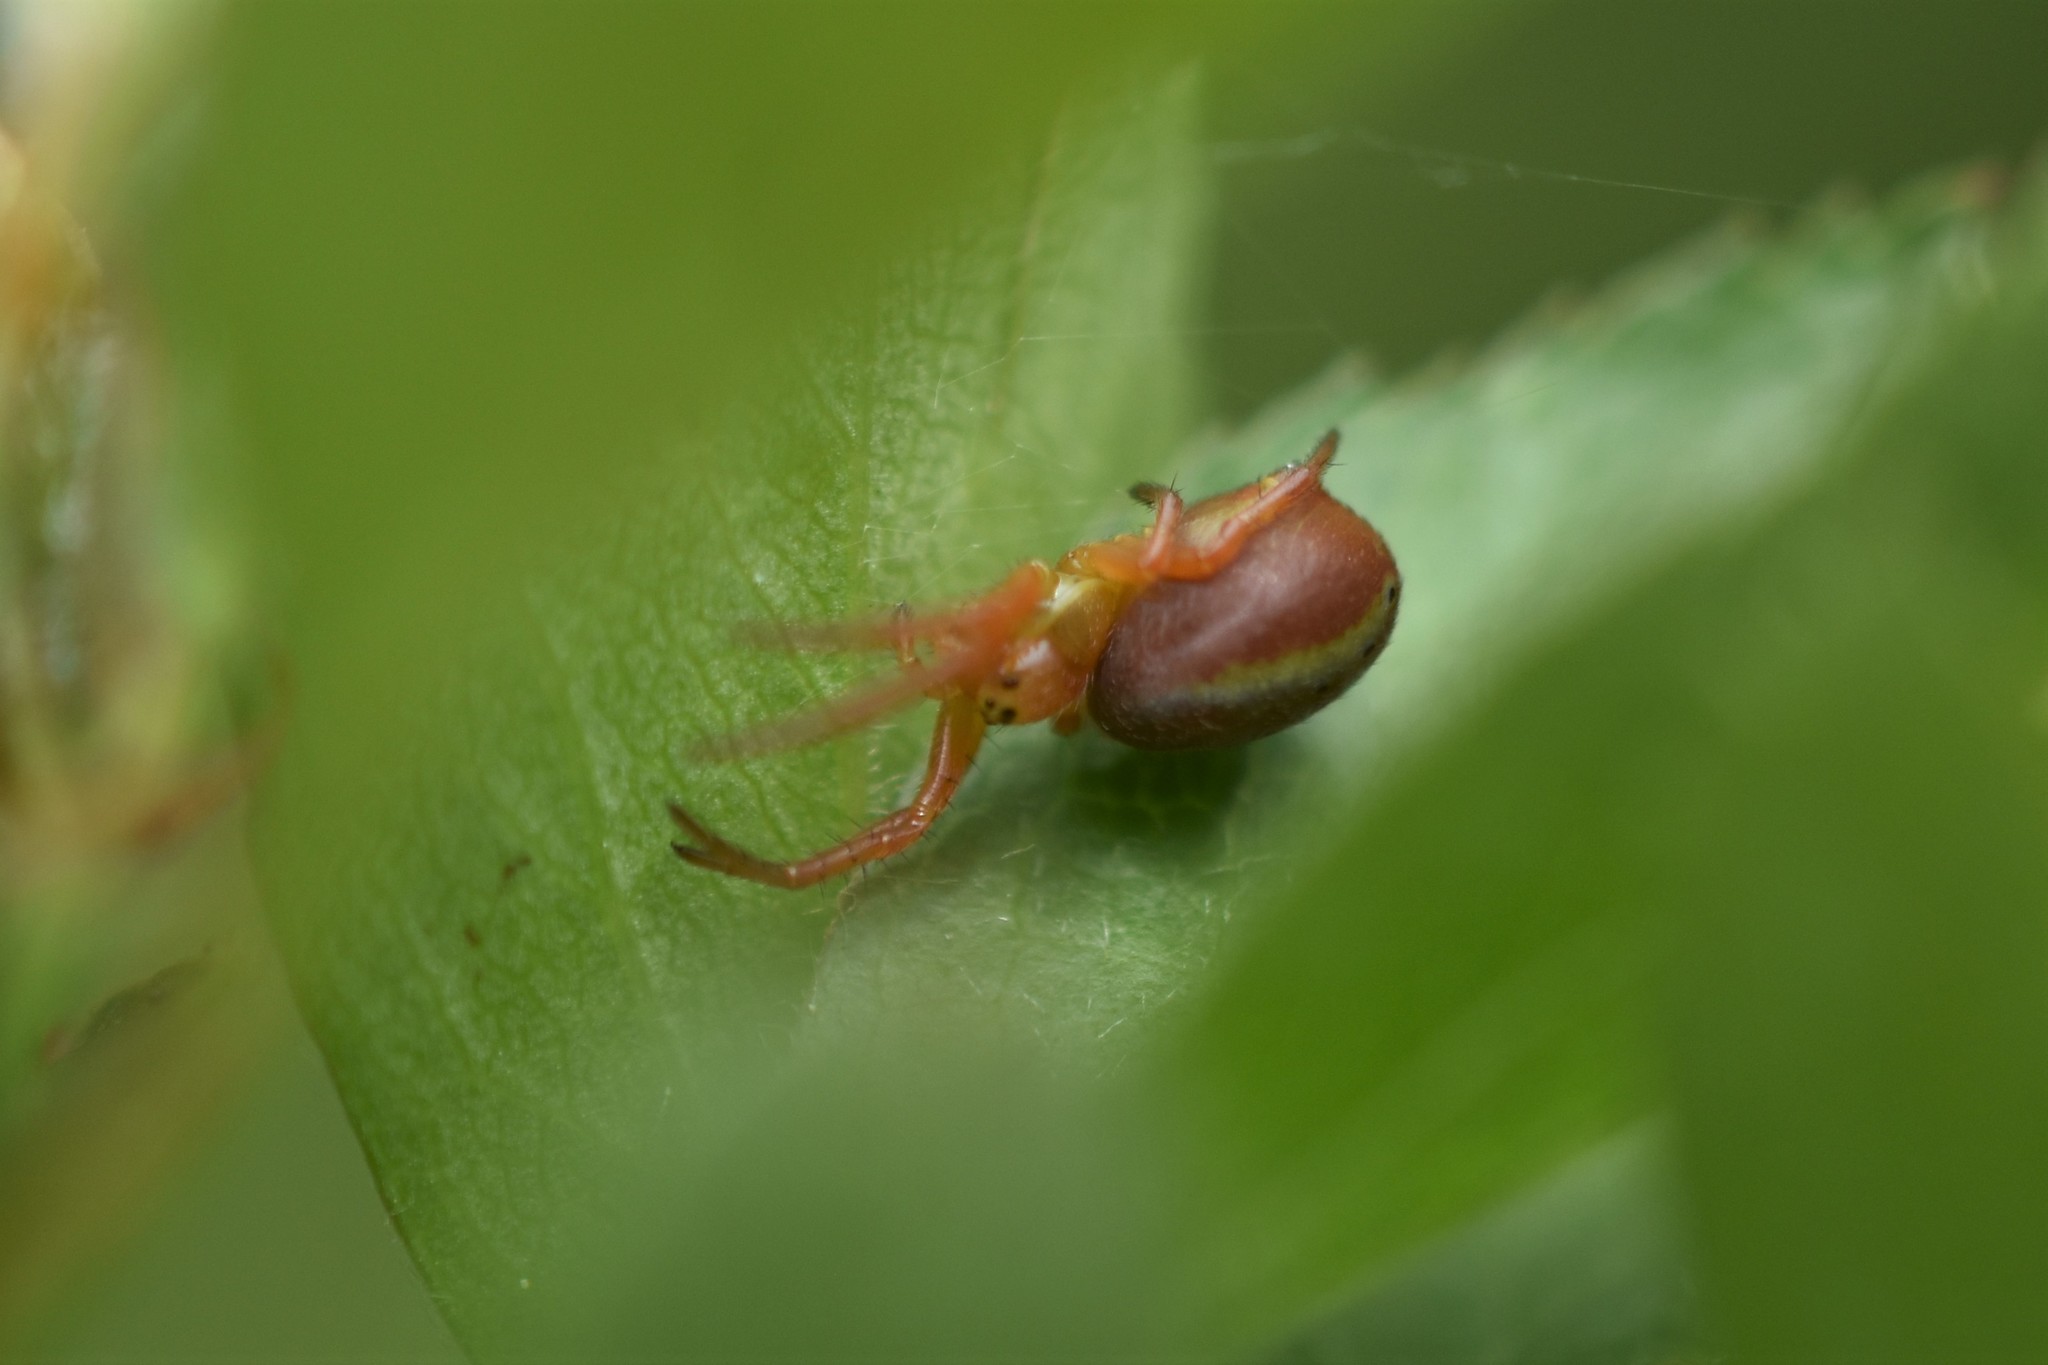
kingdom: Animalia
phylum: Arthropoda
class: Arachnida
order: Araneae
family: Araneidae
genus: Araniella
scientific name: Araniella displicata
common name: Sixspotted orb weaver
